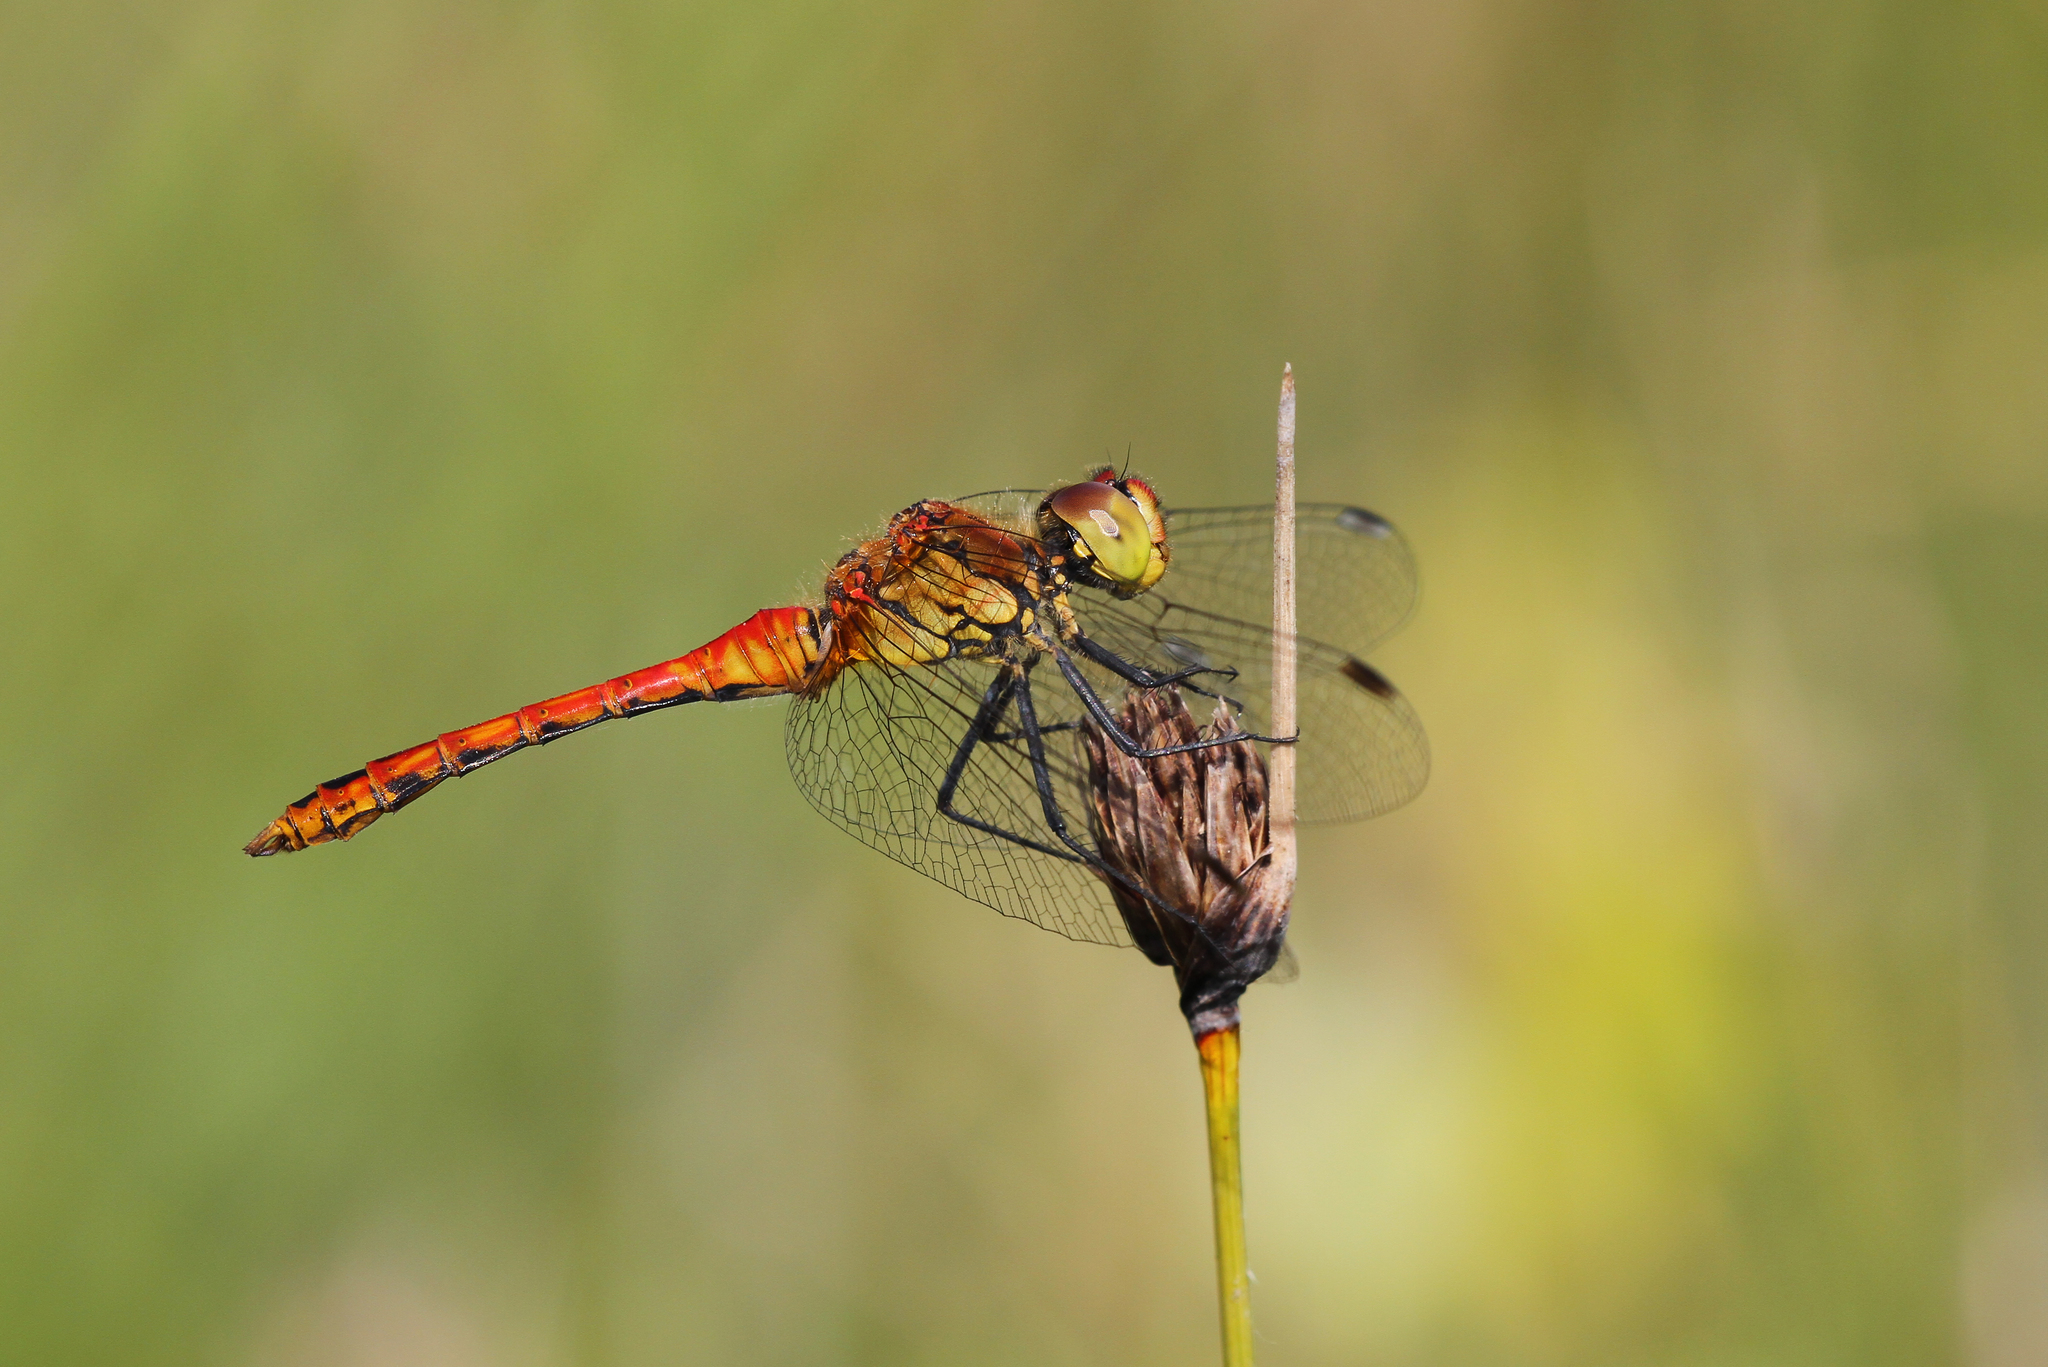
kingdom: Animalia
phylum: Arthropoda
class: Insecta
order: Odonata
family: Libellulidae
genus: Sympetrum
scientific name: Sympetrum sanguineum
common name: Ruddy darter
